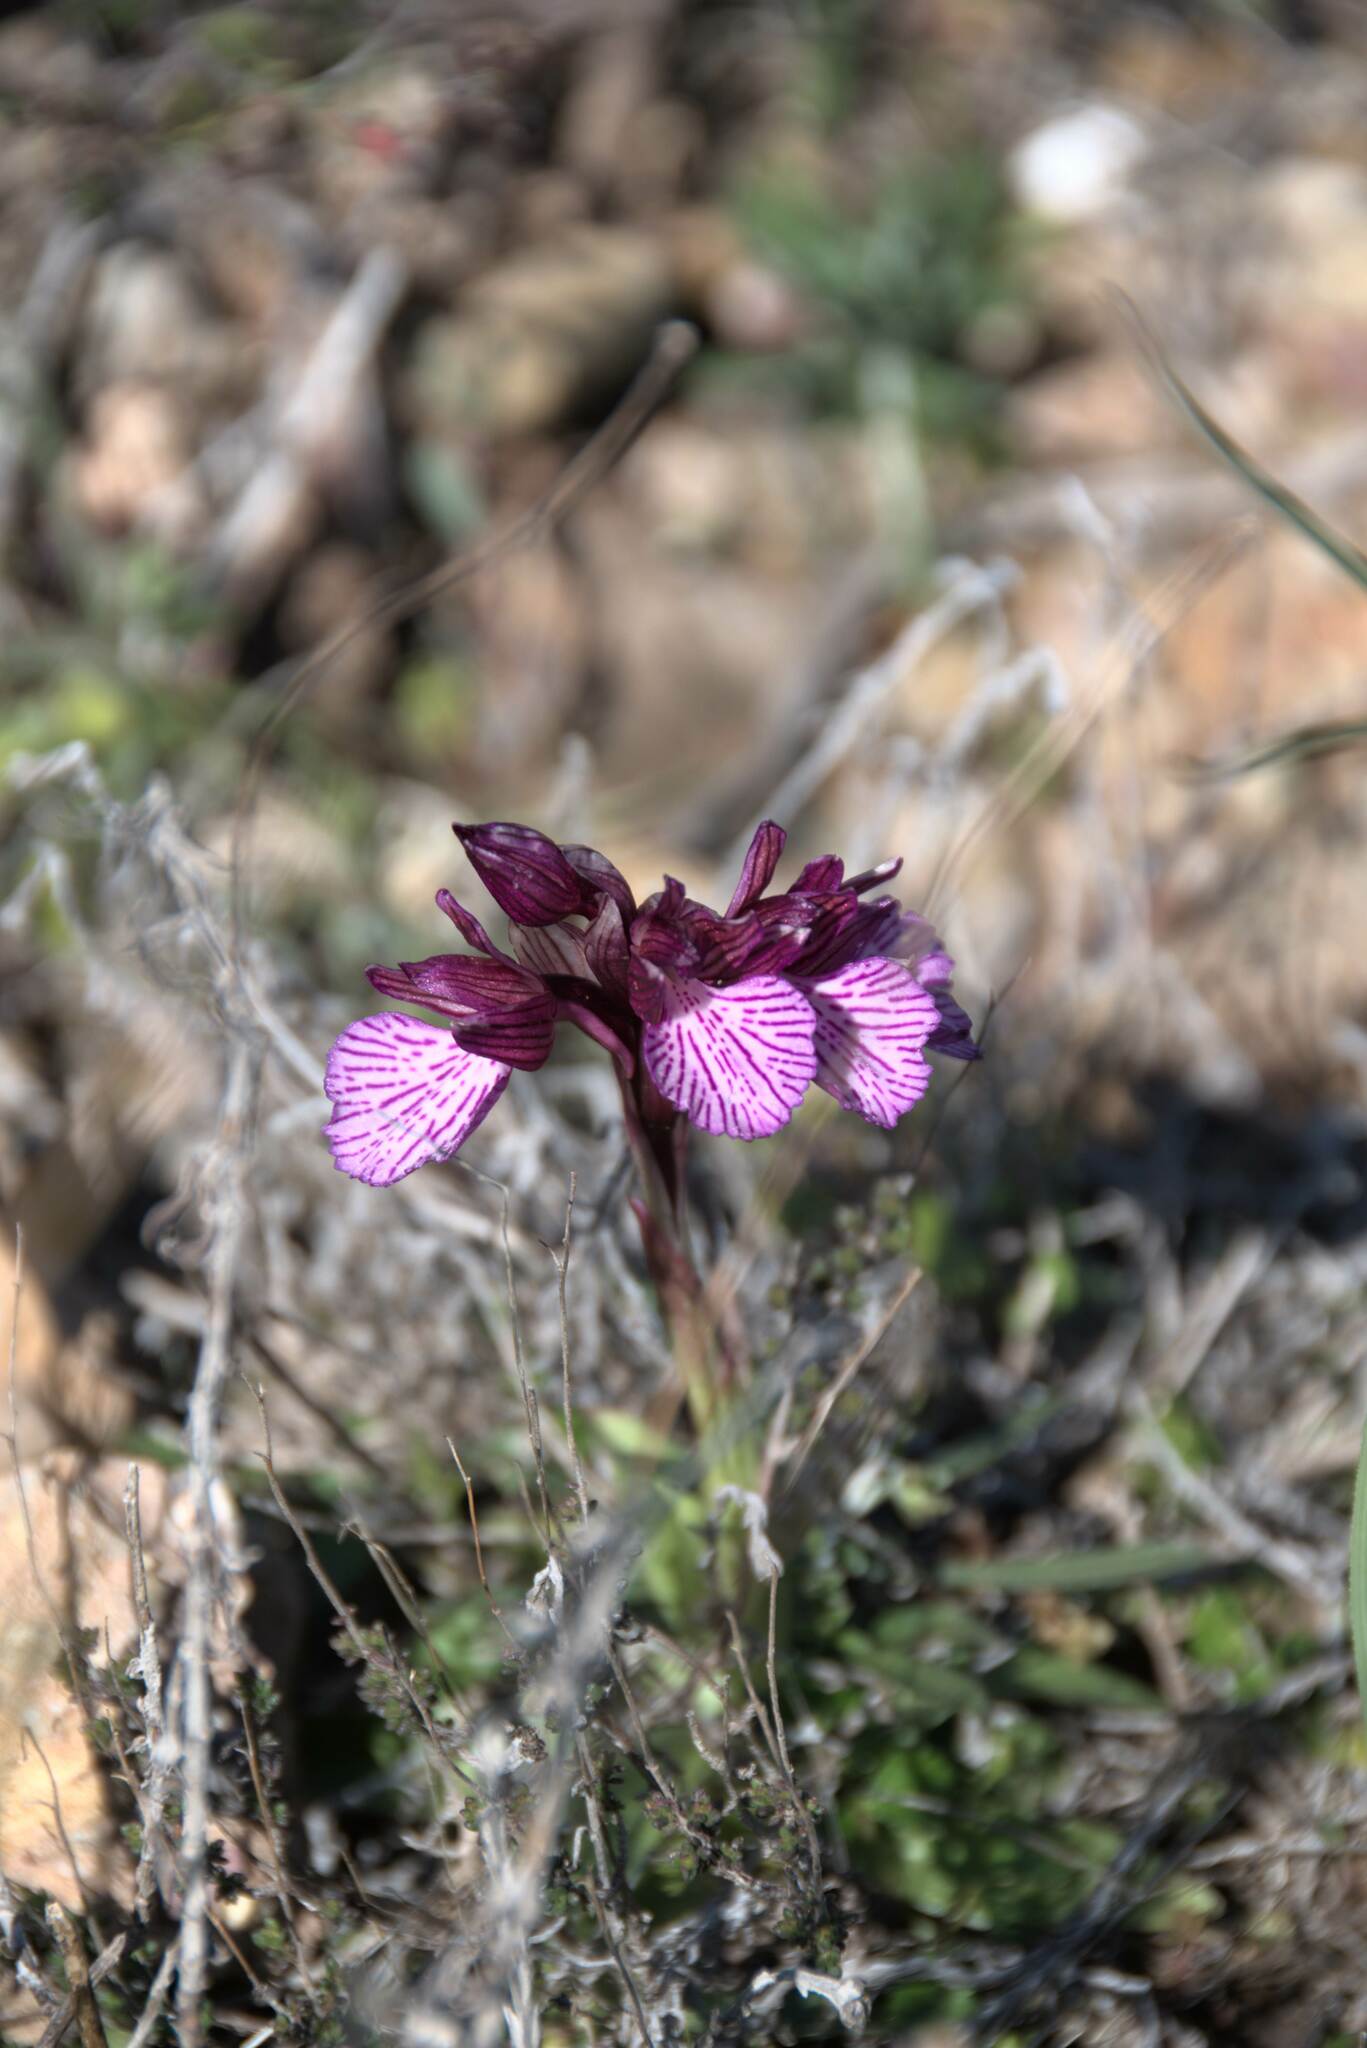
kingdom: Plantae
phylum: Tracheophyta
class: Liliopsida
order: Asparagales
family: Orchidaceae
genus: Anacamptis
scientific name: Anacamptis papilionacea
